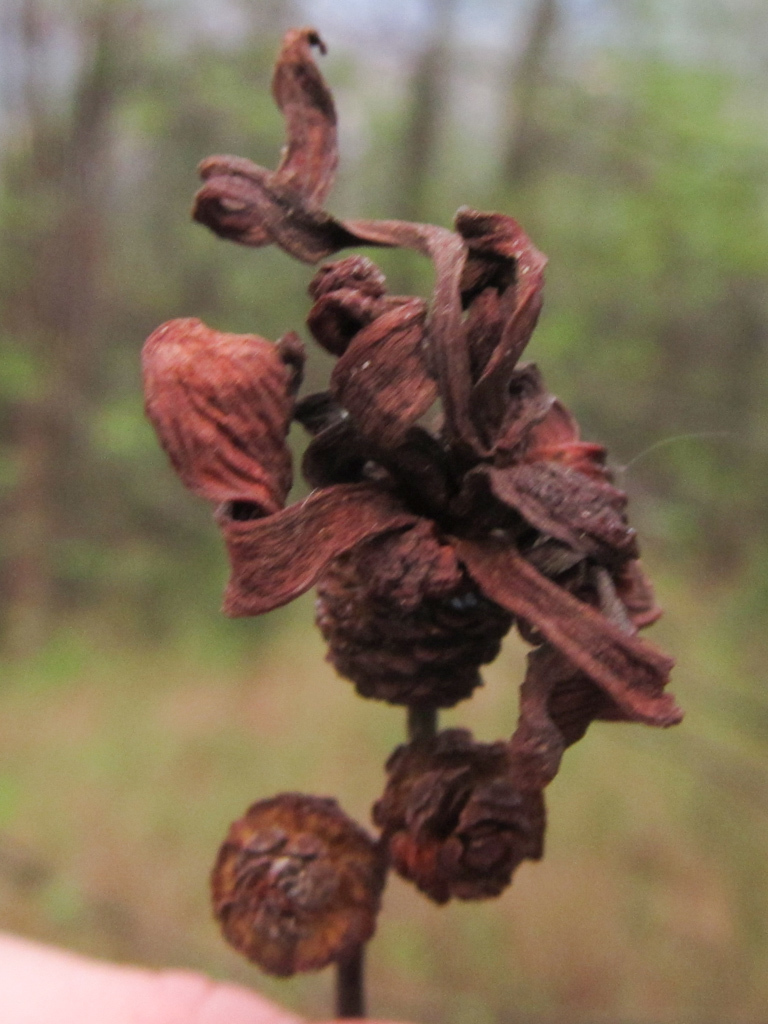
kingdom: Fungi
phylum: Ascomycota
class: Taphrinomycetes
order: Taphrinales
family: Taphrinaceae
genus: Taphrina
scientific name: Taphrina alni
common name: Alder tongue
